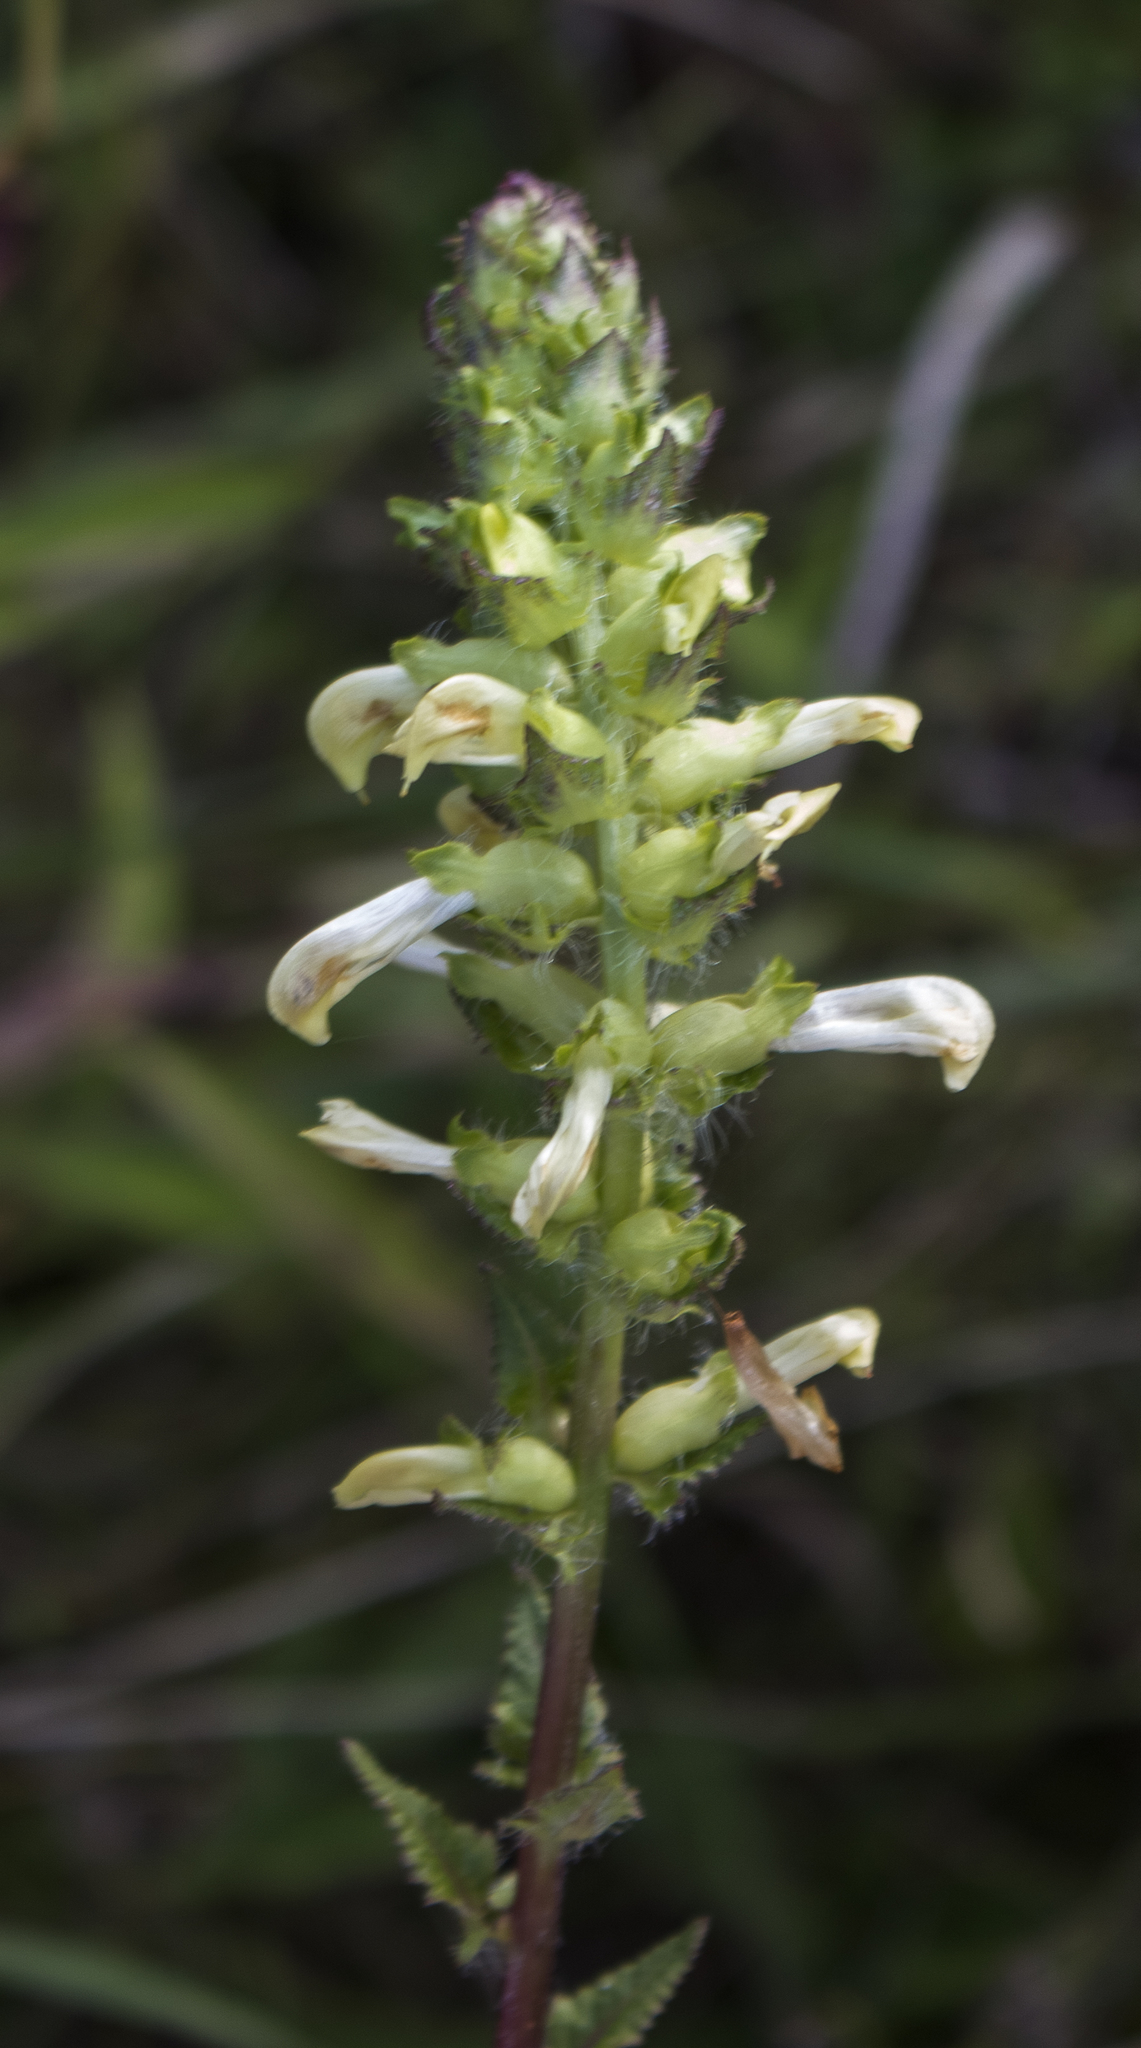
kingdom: Plantae
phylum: Tracheophyta
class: Magnoliopsida
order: Lamiales
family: Orobanchaceae
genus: Pedicularis
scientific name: Pedicularis lanceolata
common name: Swamp lousewort
